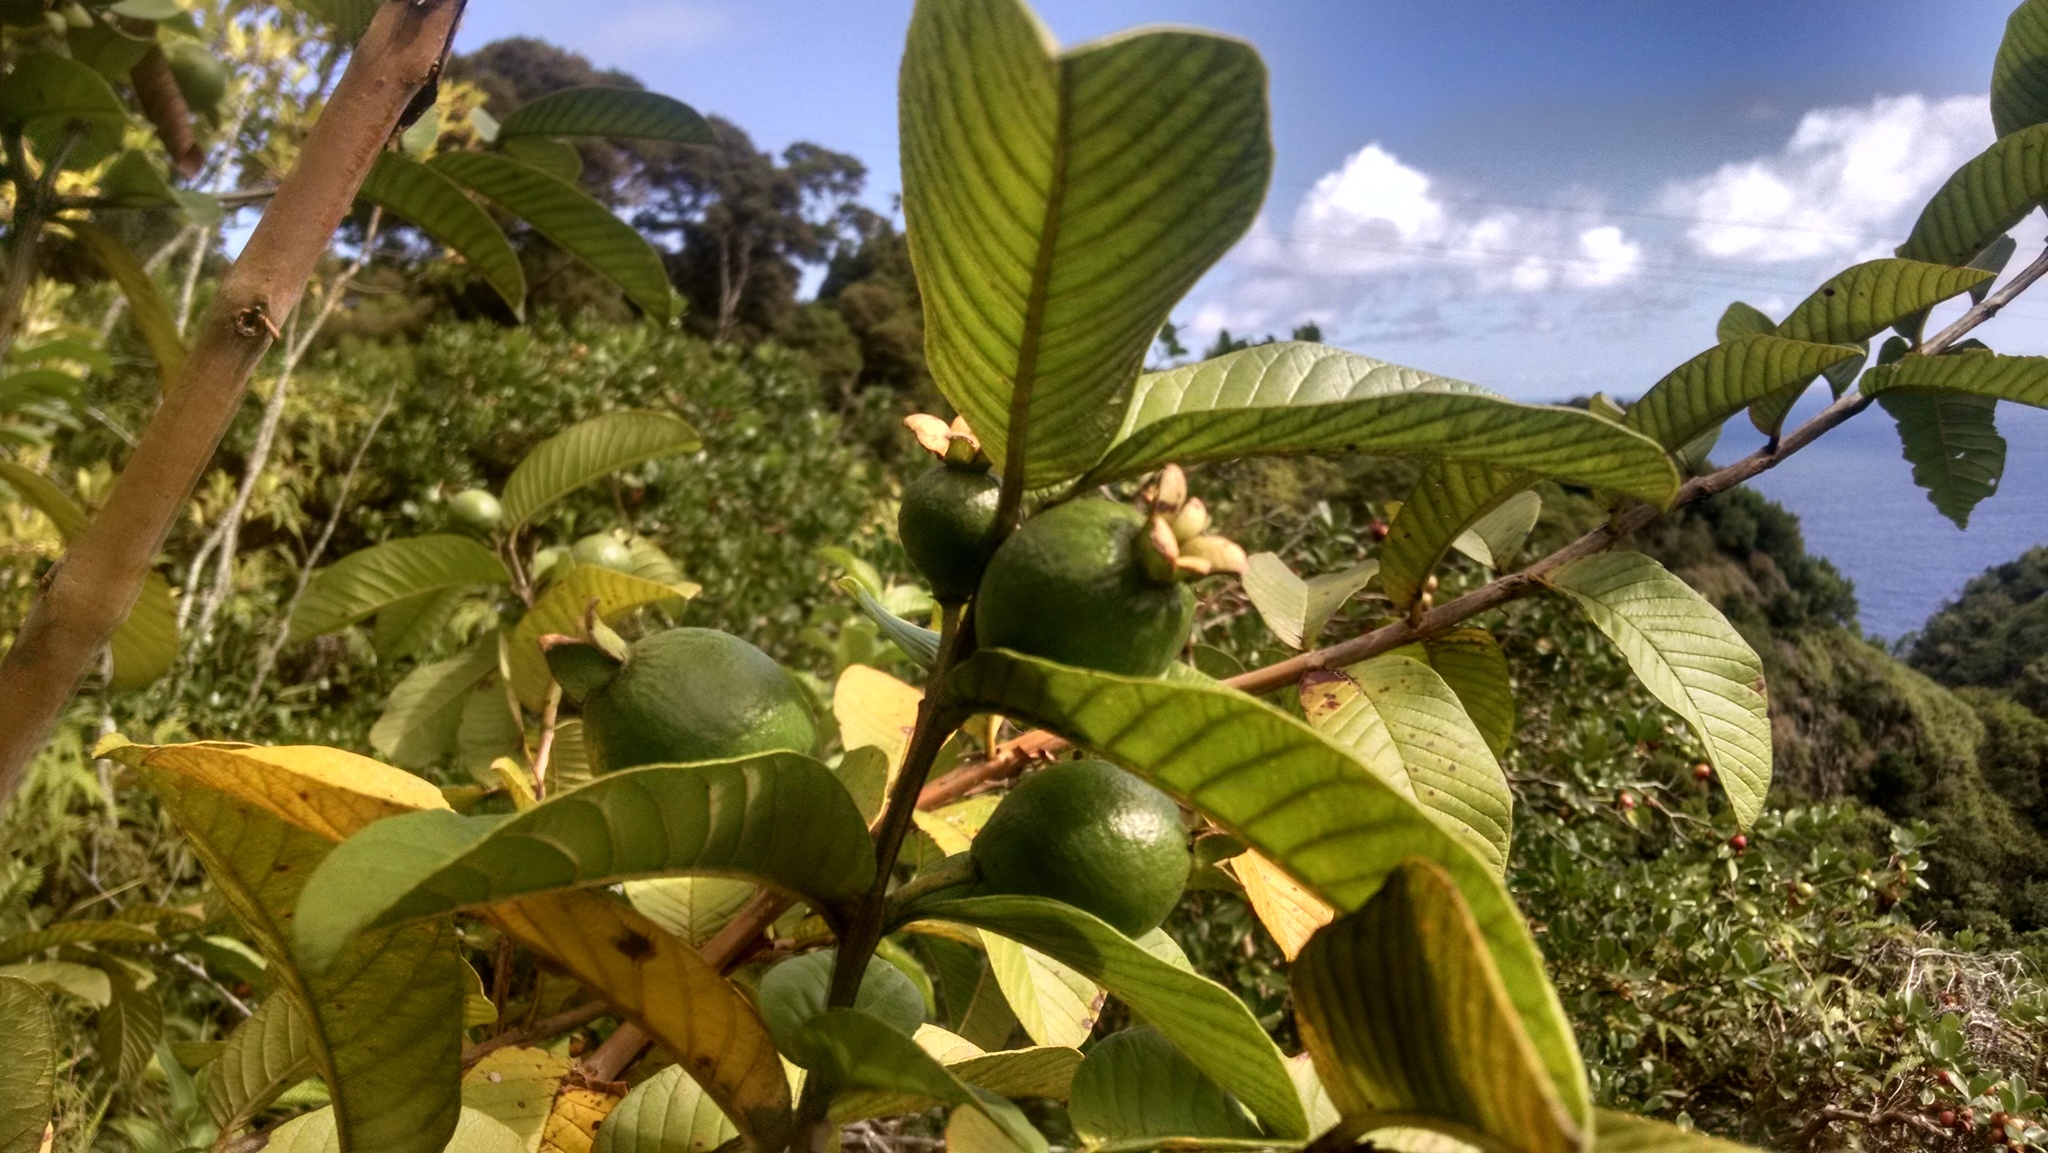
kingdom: Plantae
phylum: Tracheophyta
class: Magnoliopsida
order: Myrtales
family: Myrtaceae
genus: Psidium
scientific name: Psidium guajava
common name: Guava
